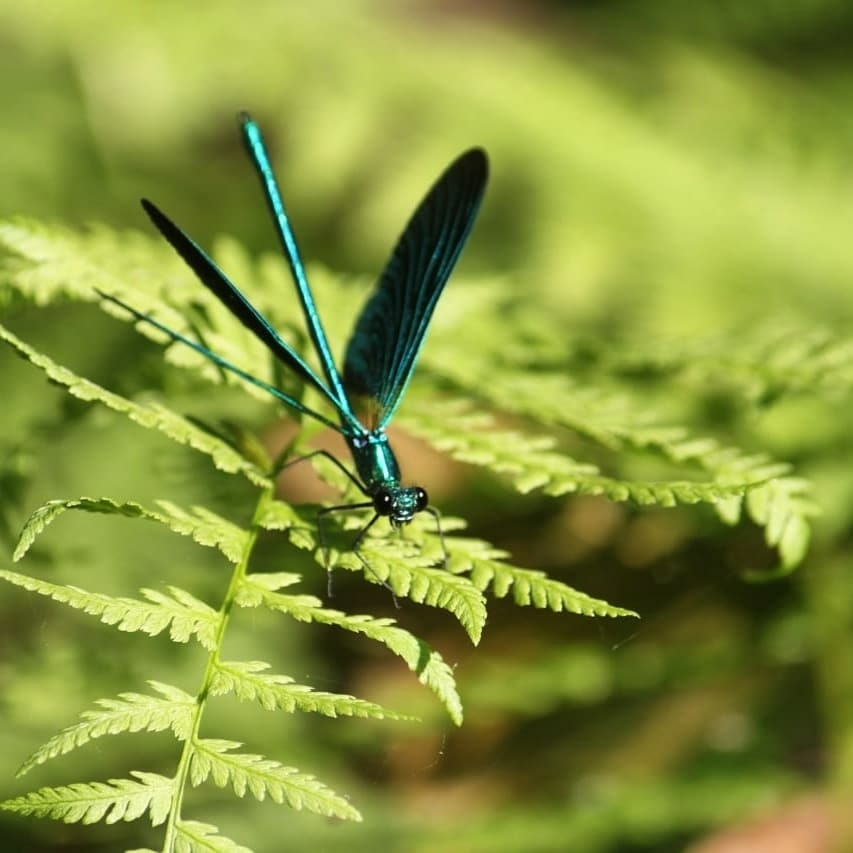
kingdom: Animalia
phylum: Arthropoda
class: Insecta
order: Odonata
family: Calopterygidae
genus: Calopteryx
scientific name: Calopteryx virgo
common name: Beautiful demoiselle
